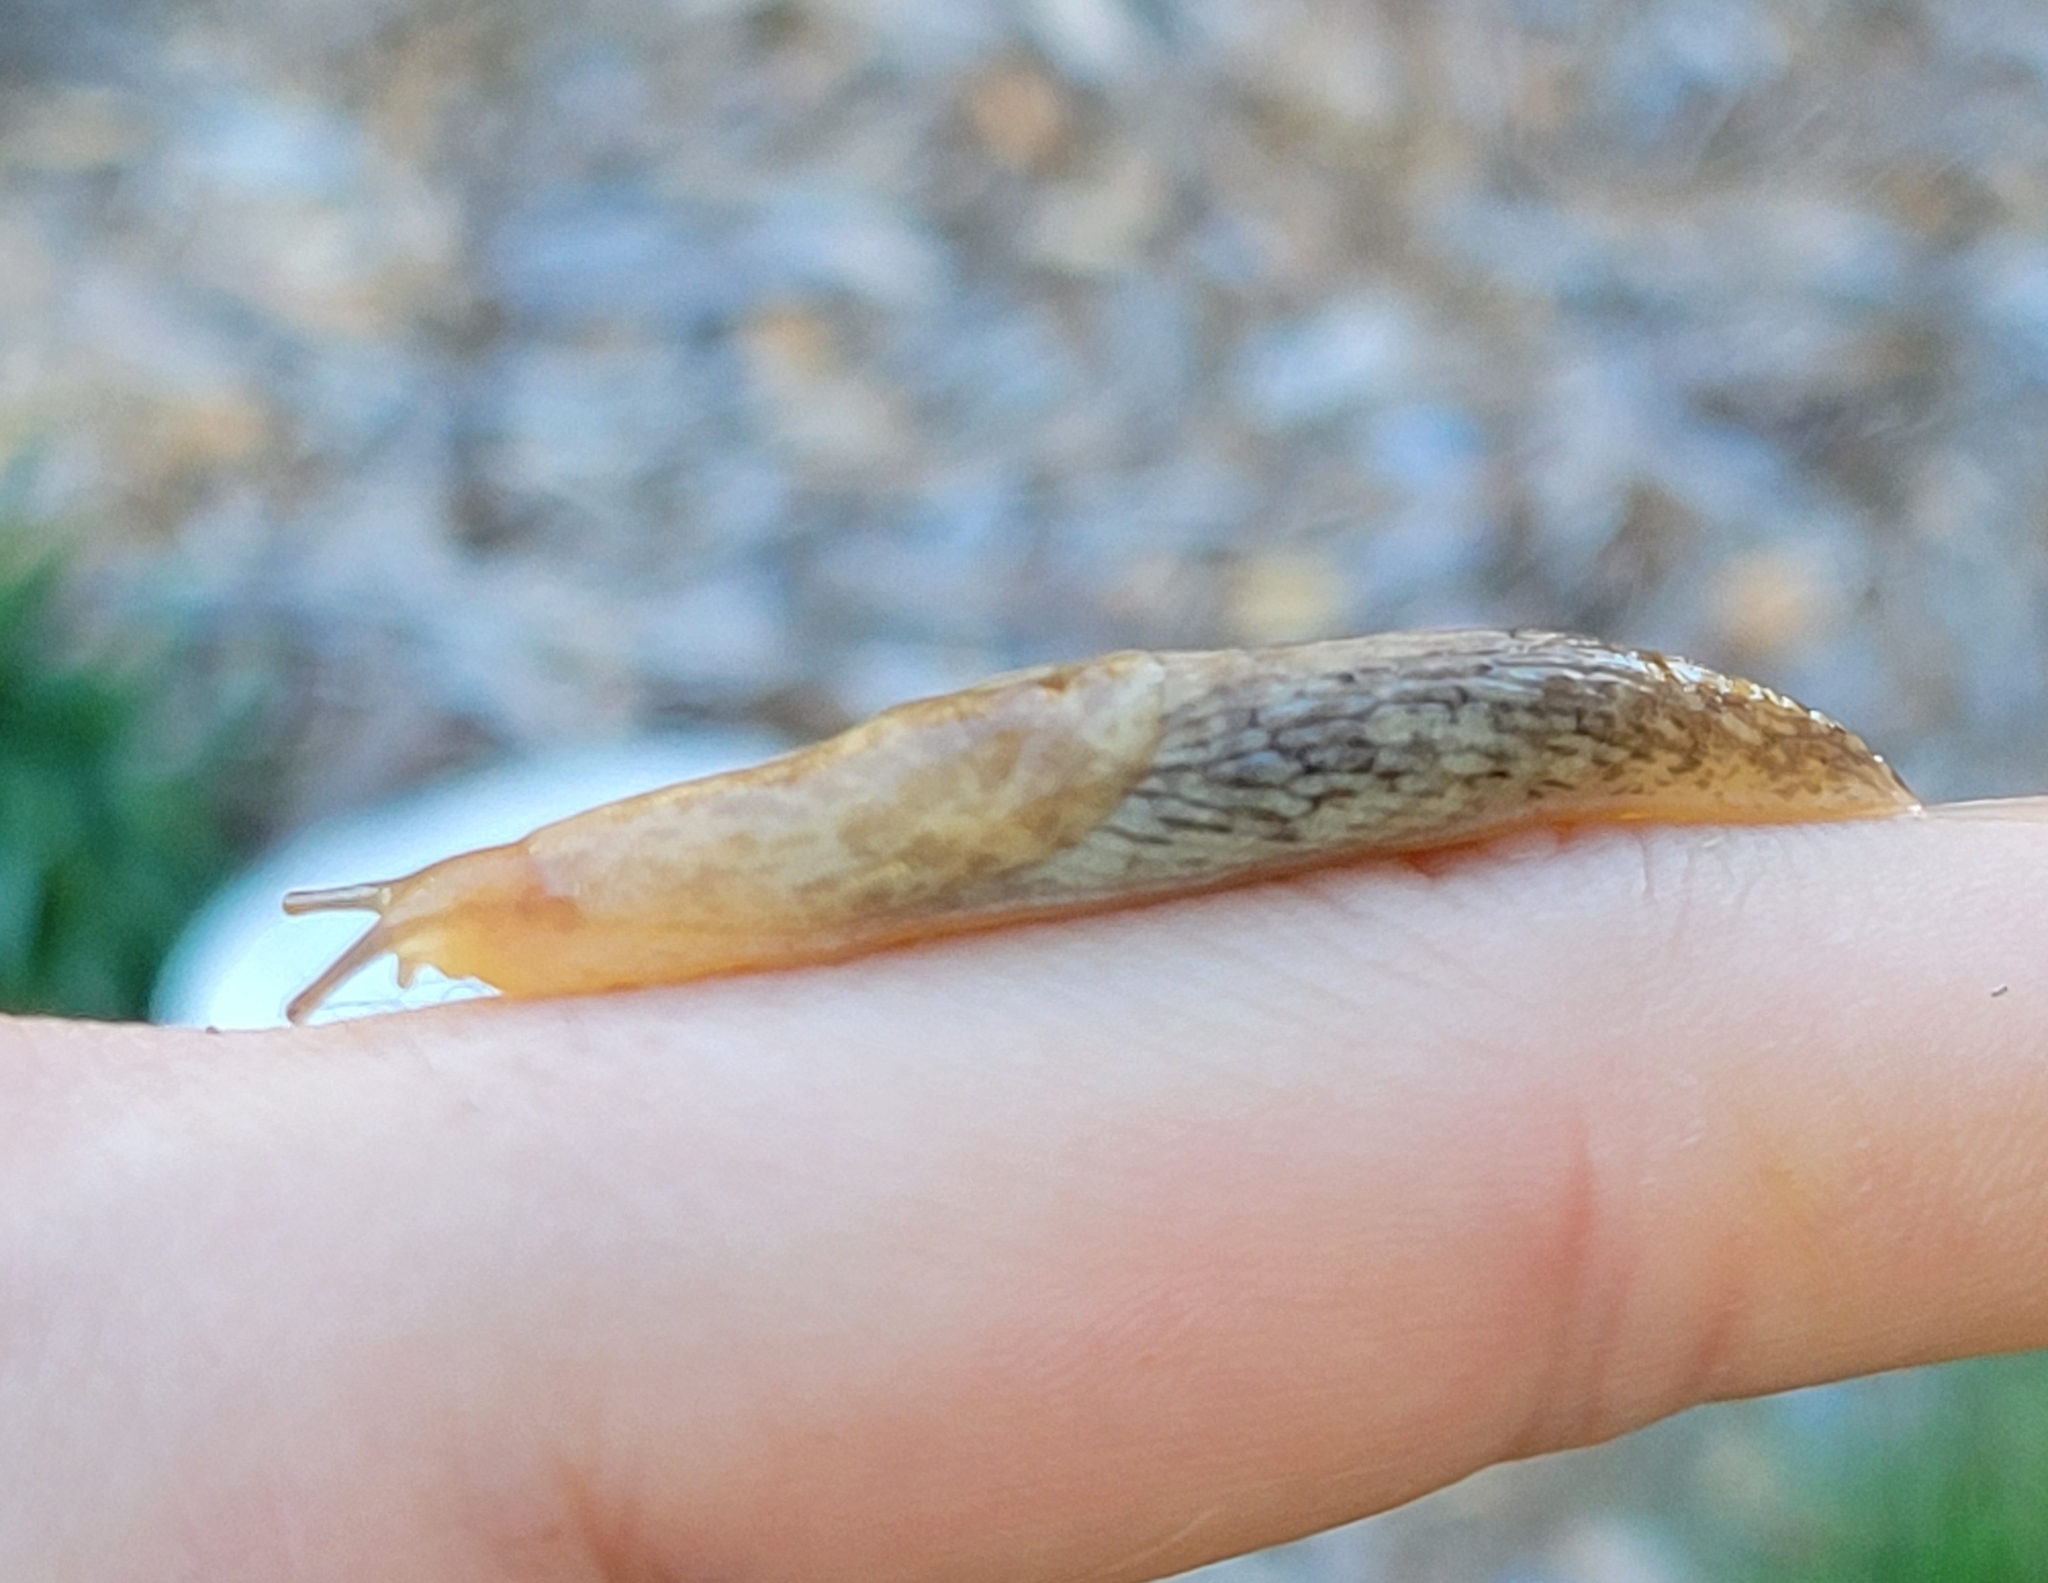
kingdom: Animalia
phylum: Mollusca
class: Gastropoda
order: Stylommatophora
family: Agriolimacidae
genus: Deroceras
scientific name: Deroceras reticulatum
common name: Gray field slug
